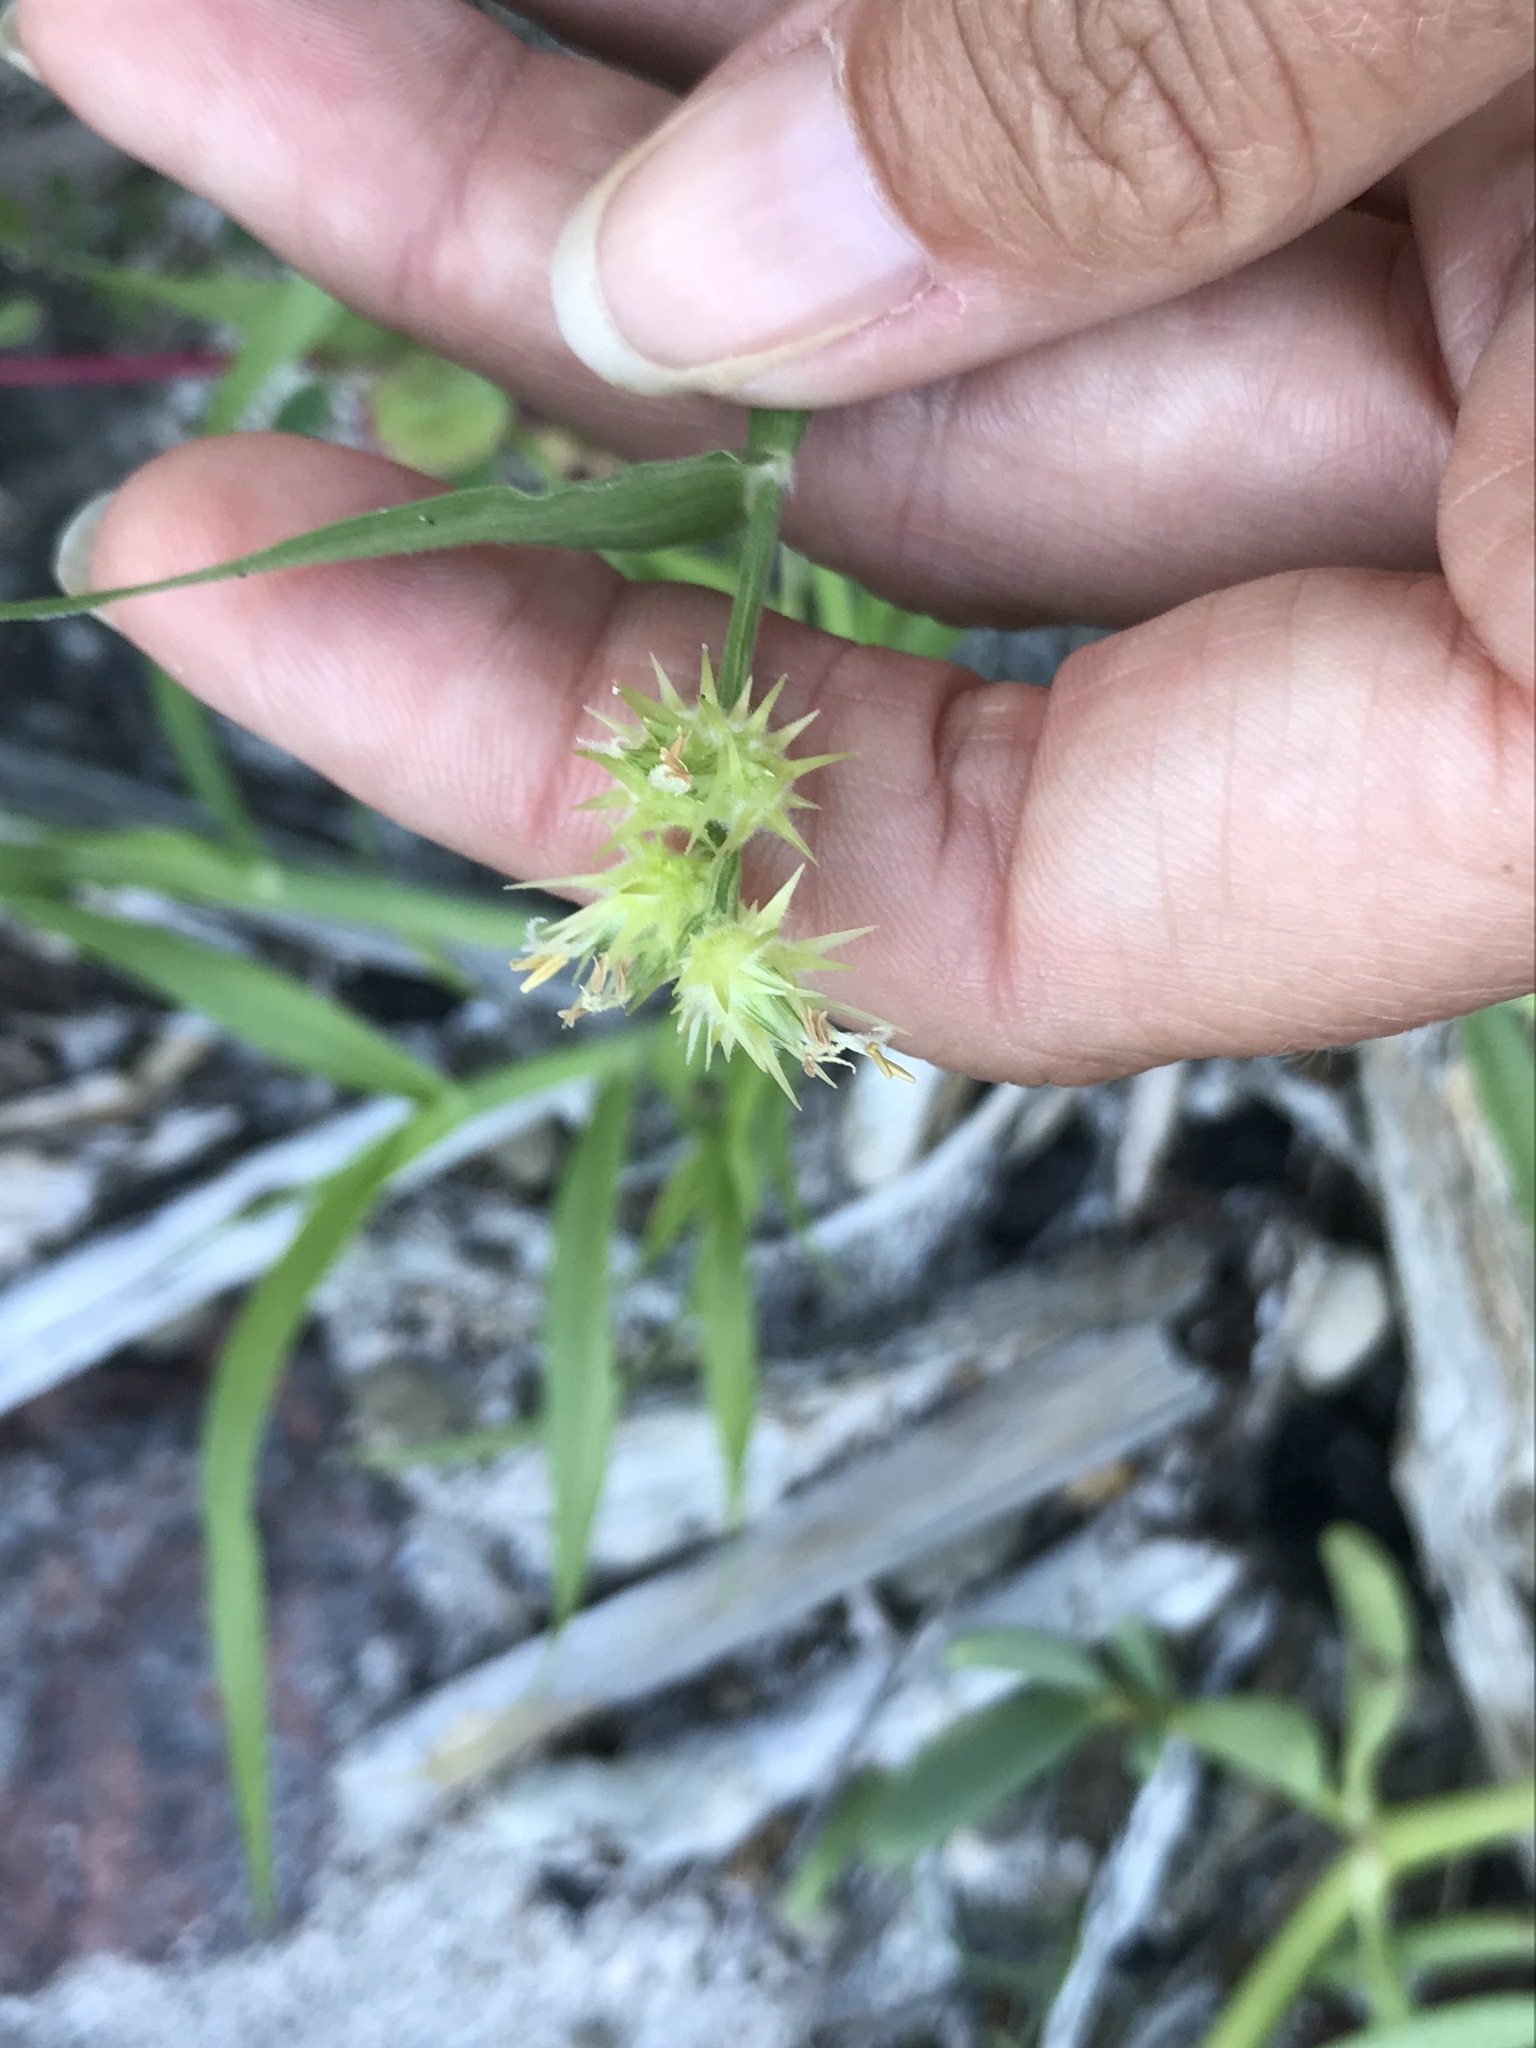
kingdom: Plantae
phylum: Tracheophyta
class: Liliopsida
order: Poales
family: Poaceae
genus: Cenchrus
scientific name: Cenchrus palmeri
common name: Giant sandbur
